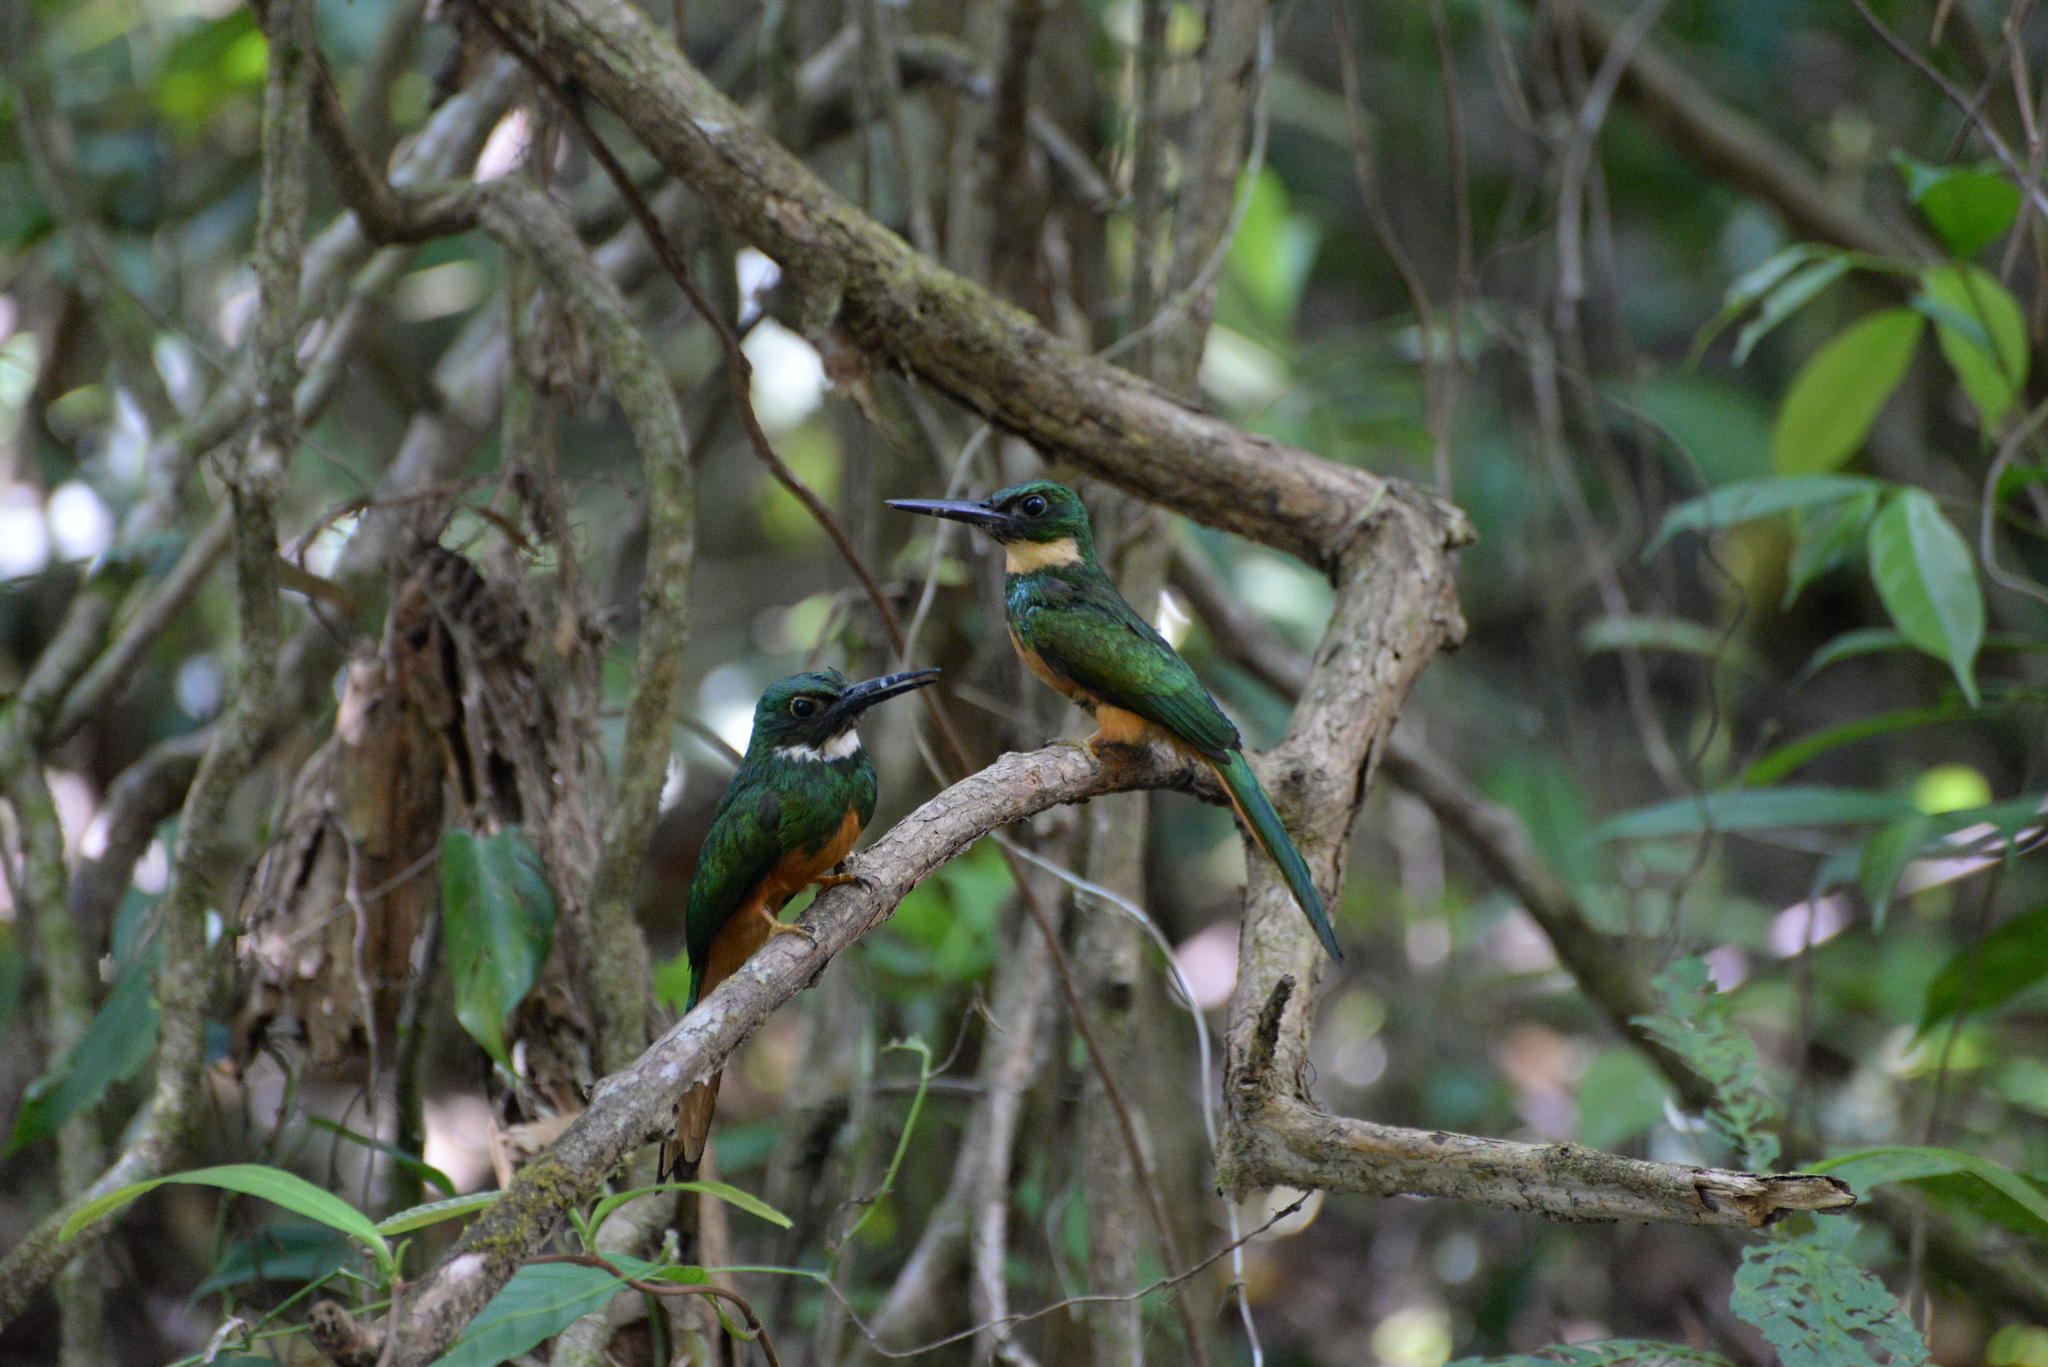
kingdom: Animalia
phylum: Chordata
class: Aves
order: Piciformes
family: Galbulidae
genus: Galbula
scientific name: Galbula ruficauda
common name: Rufous-tailed jacamar
